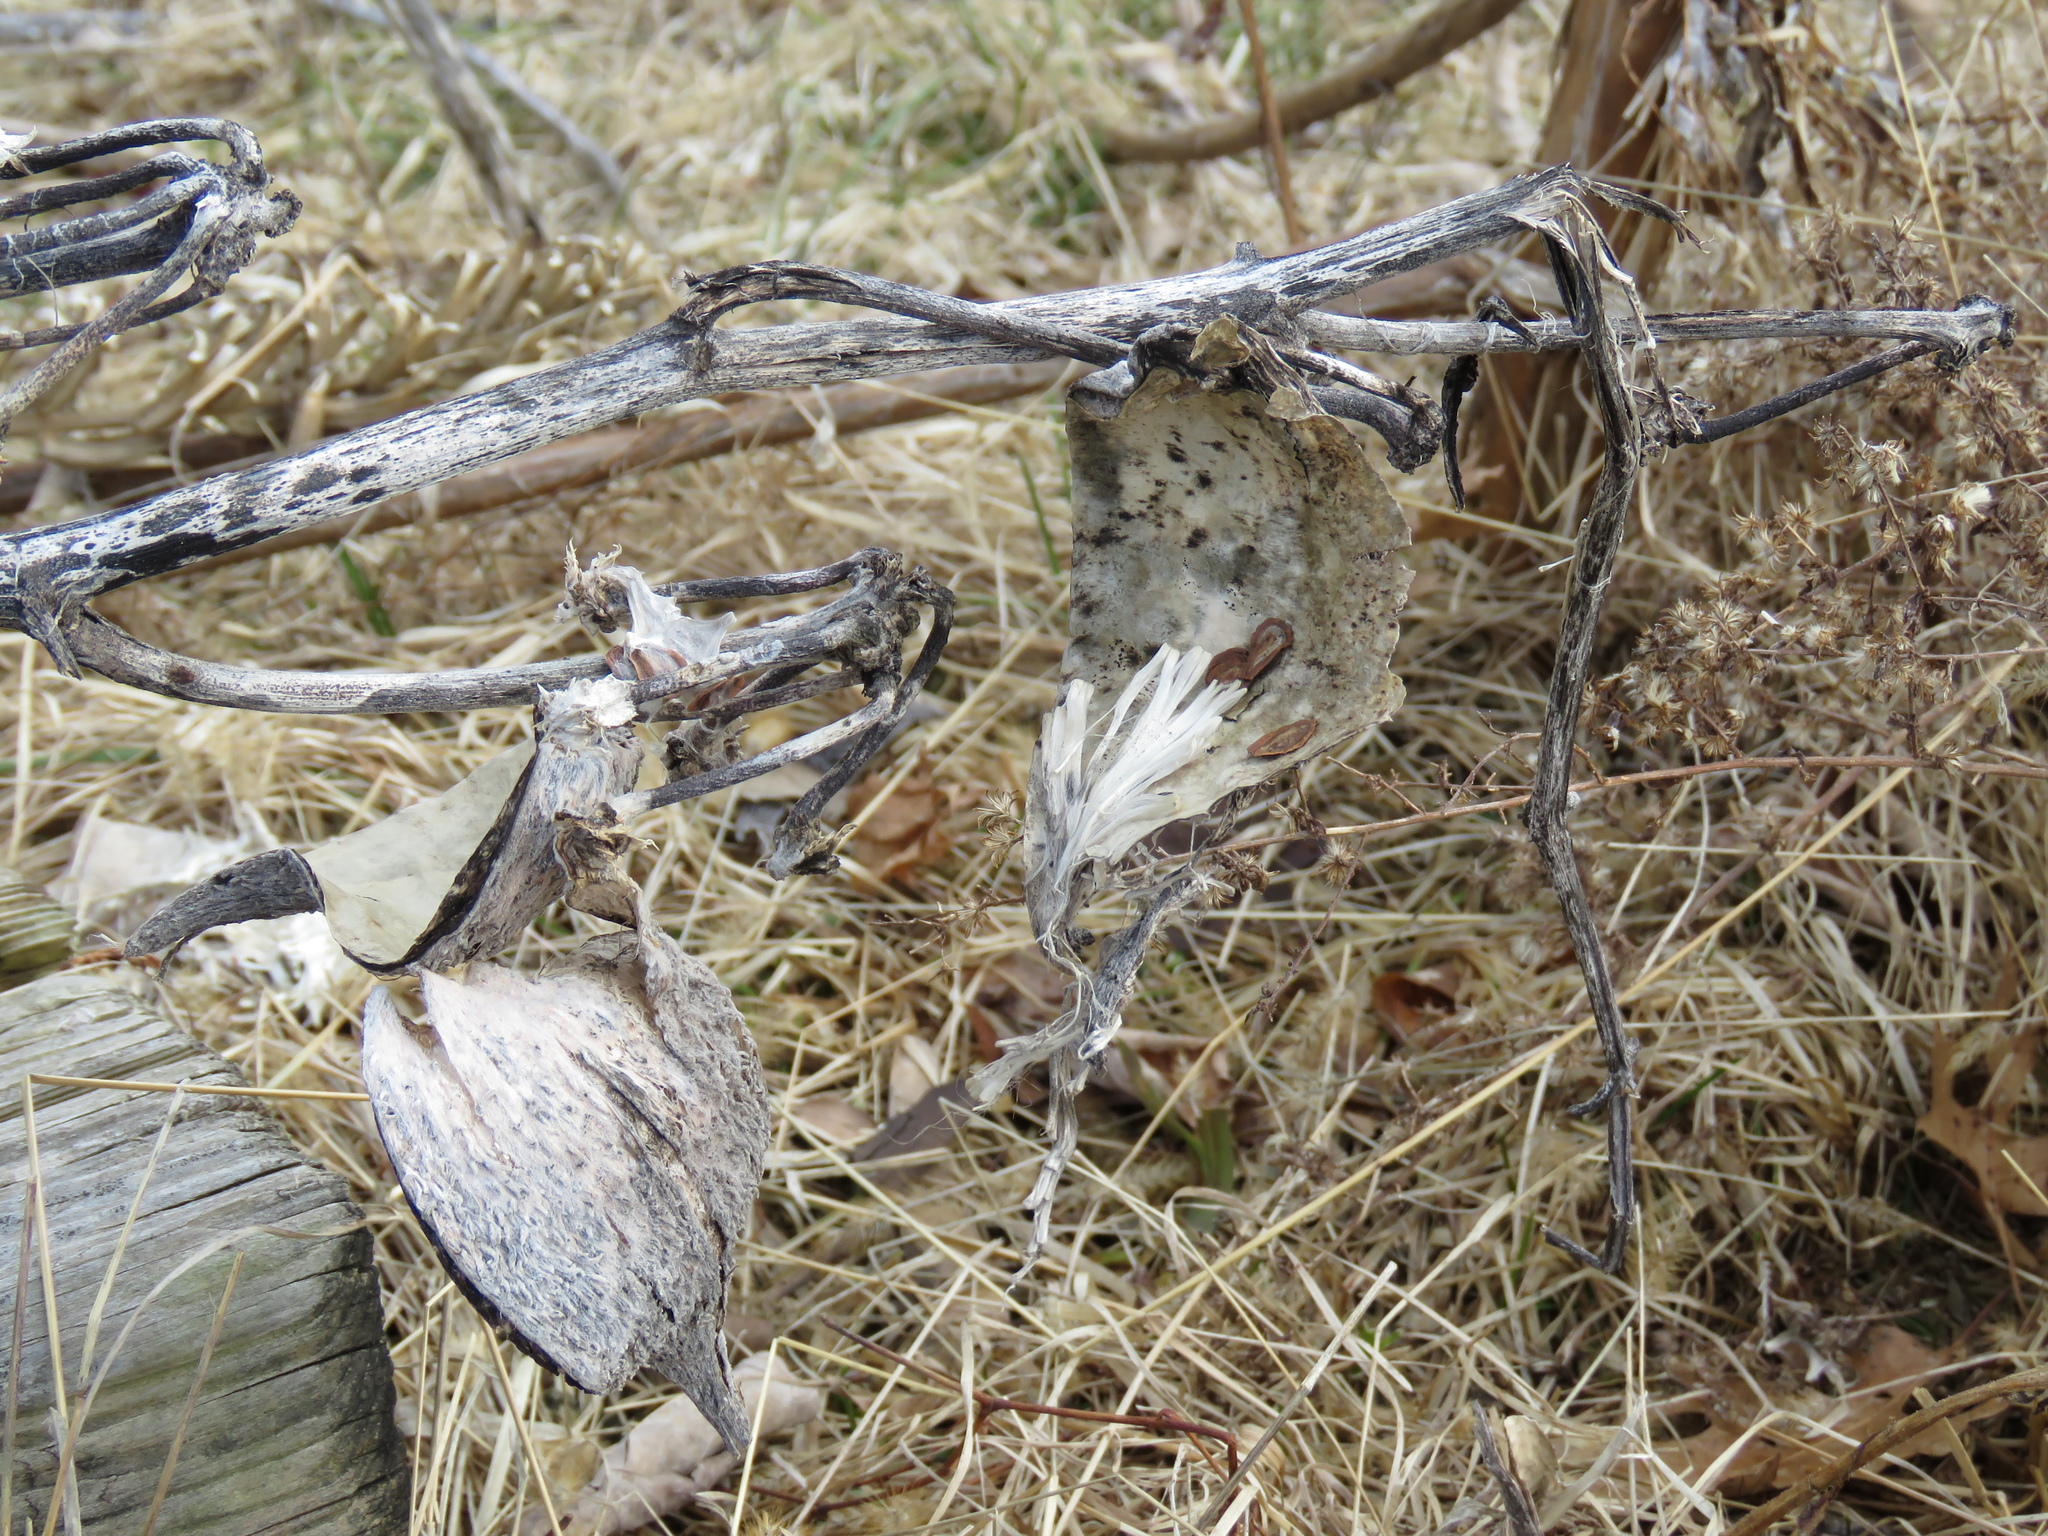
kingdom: Plantae
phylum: Tracheophyta
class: Magnoliopsida
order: Gentianales
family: Apocynaceae
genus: Asclepias
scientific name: Asclepias syriaca
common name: Common milkweed
